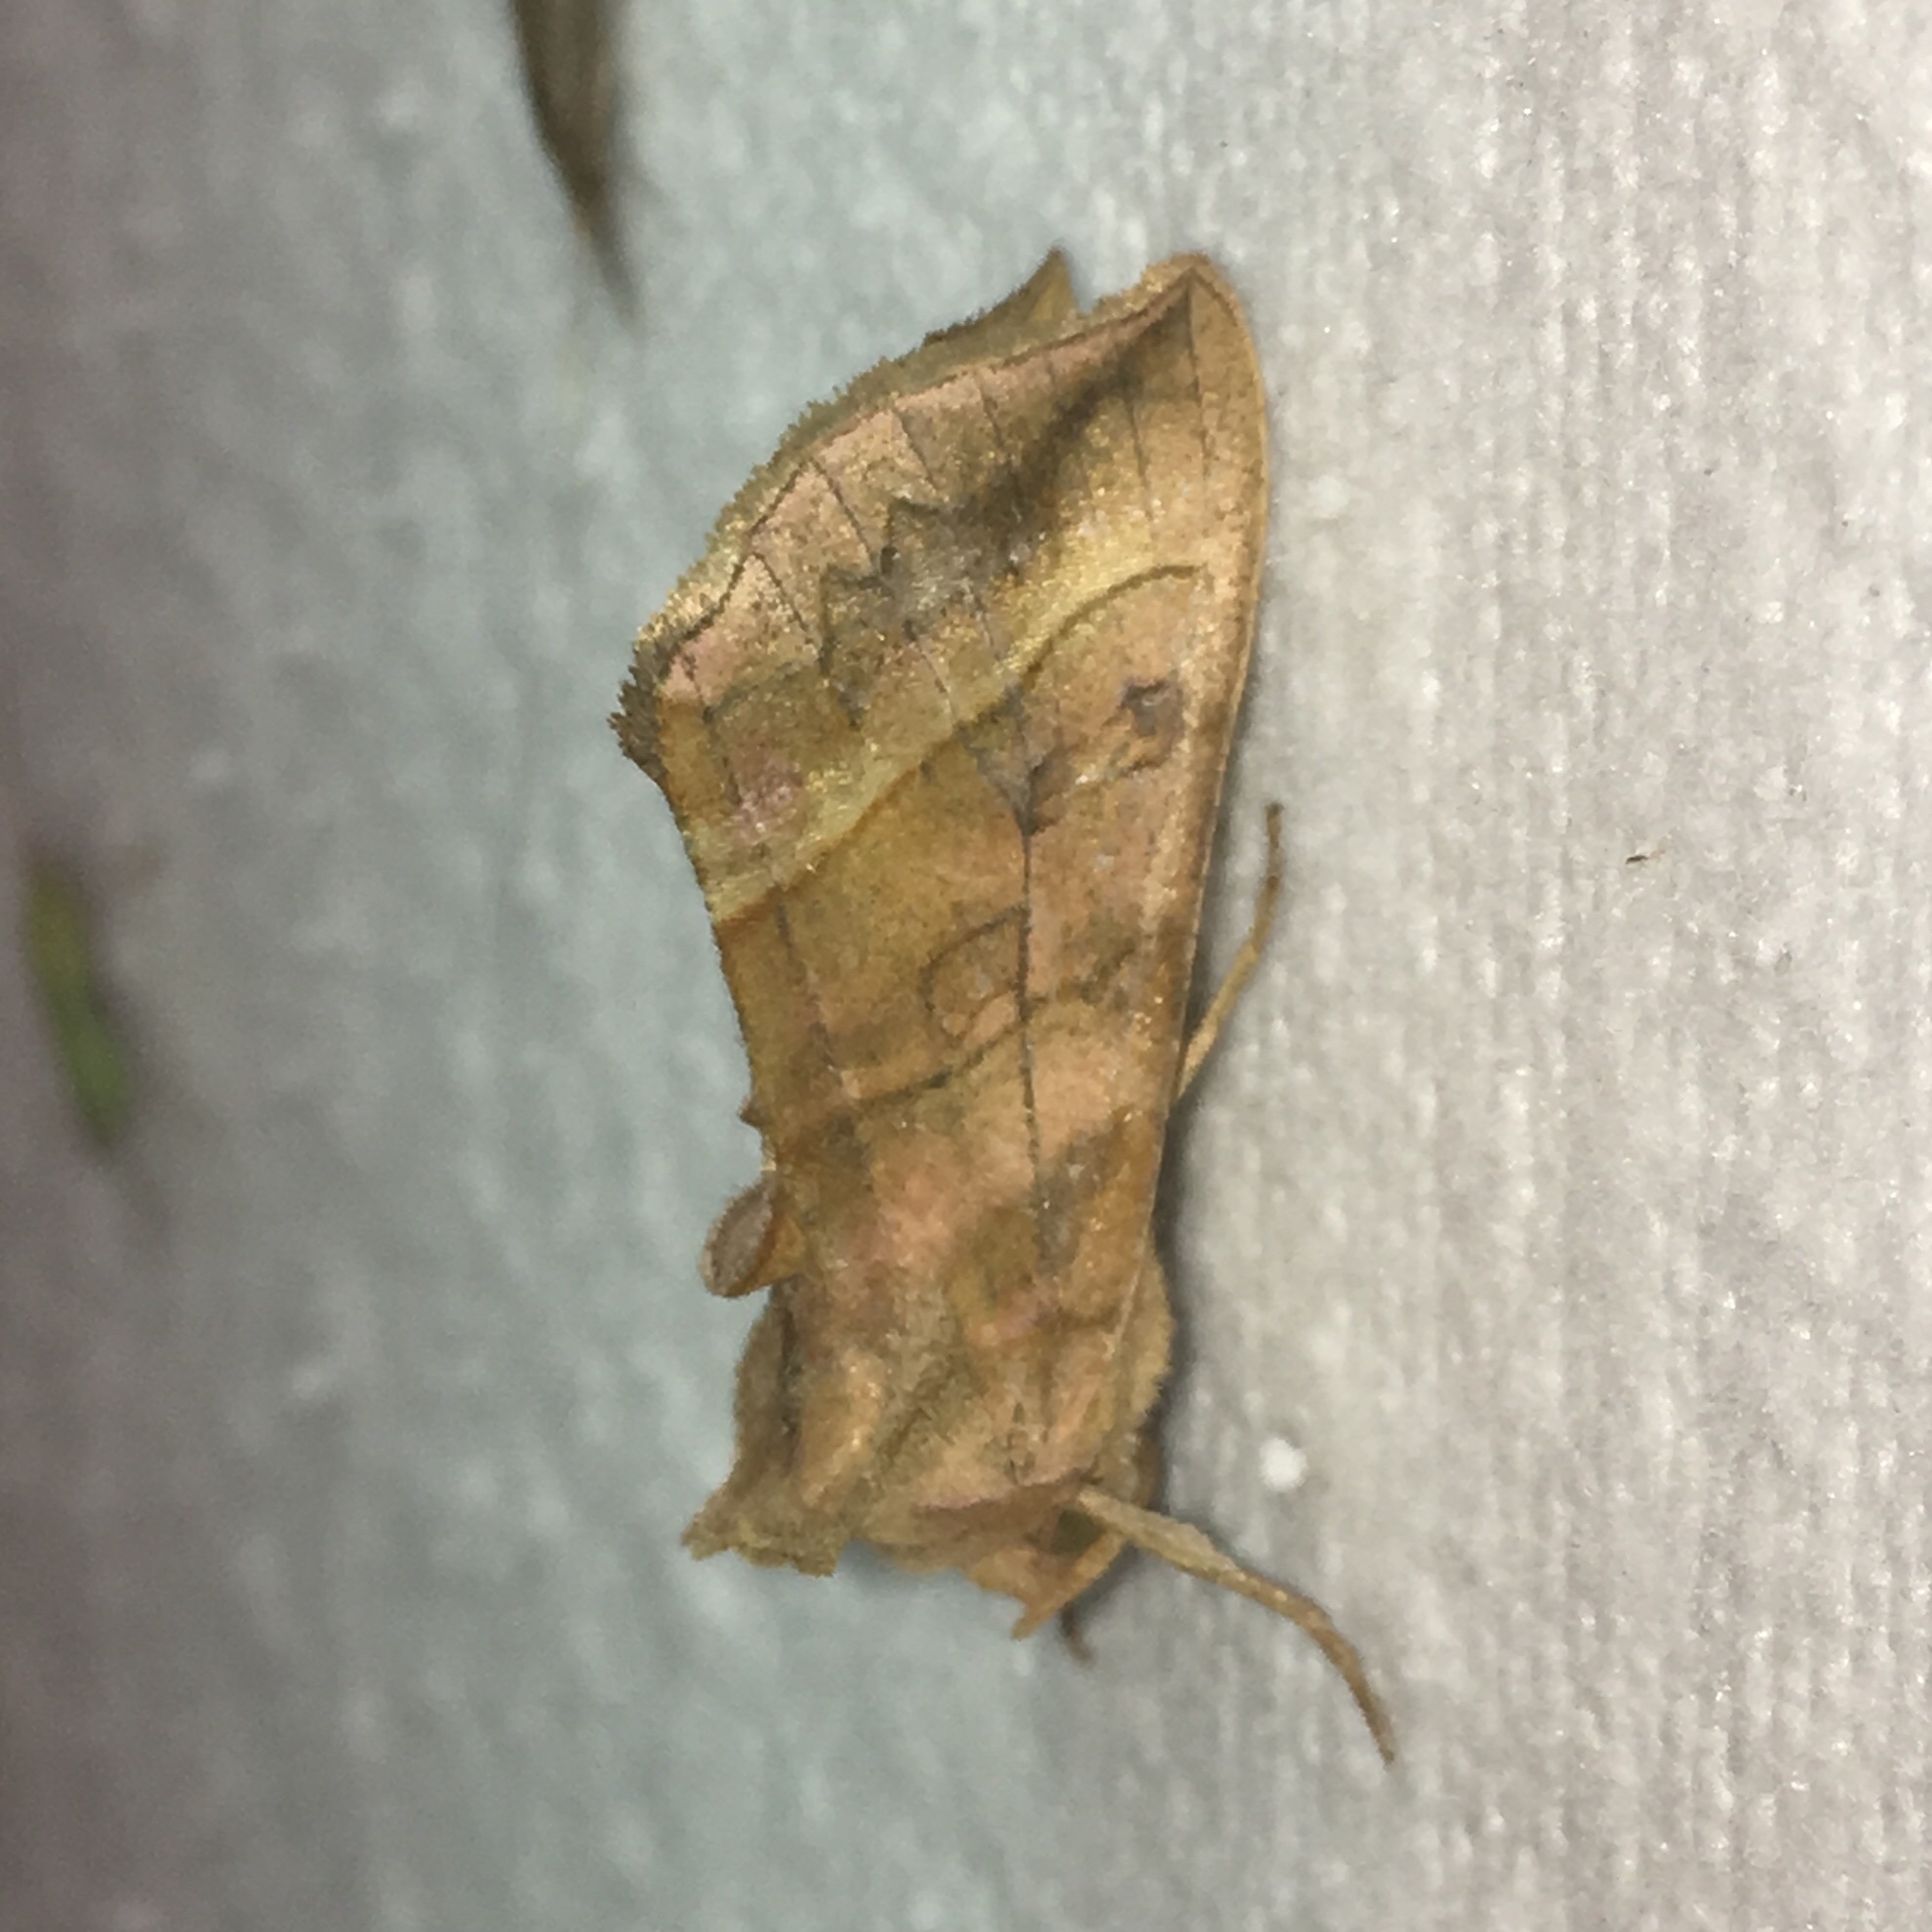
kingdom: Animalia
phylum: Arthropoda
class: Insecta
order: Lepidoptera
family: Noctuidae
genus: Diachrysia
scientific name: Diachrysia aereoides
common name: Dark-spotted looper moth
